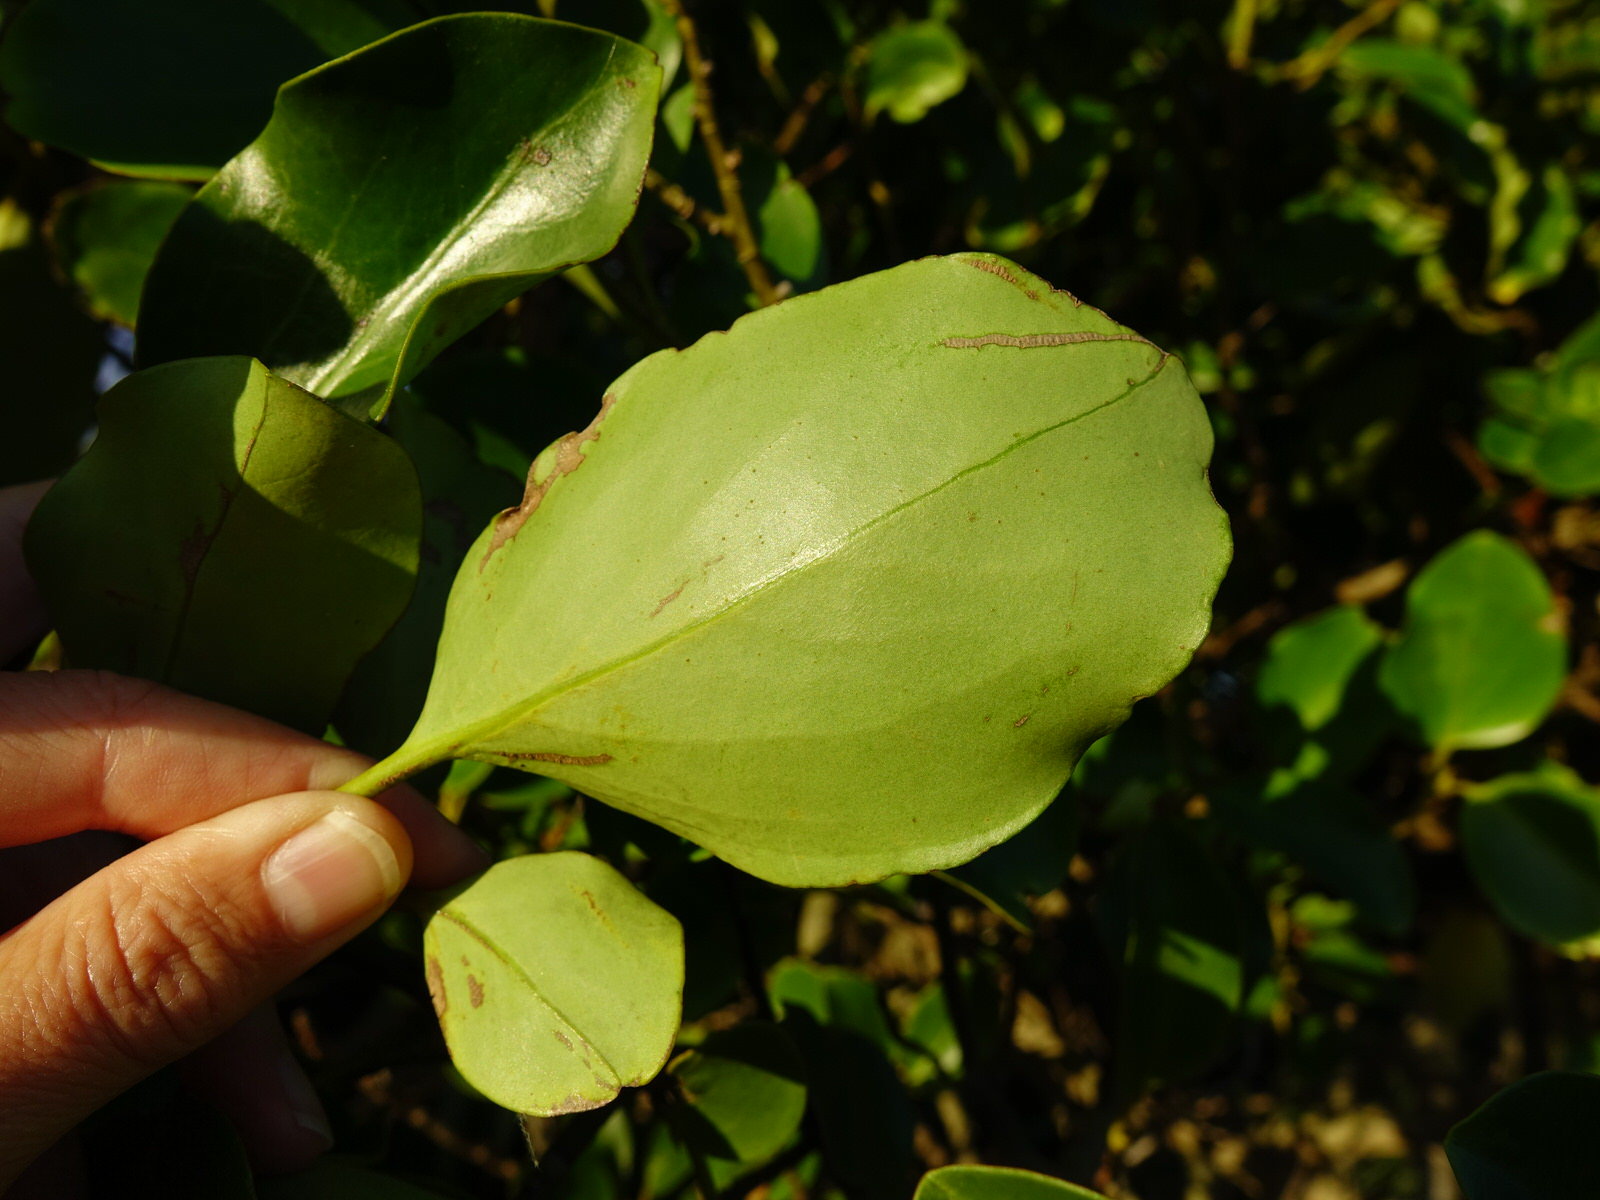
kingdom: Plantae
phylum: Tracheophyta
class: Magnoliopsida
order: Apiales
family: Griseliniaceae
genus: Griselinia
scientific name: Griselinia littoralis
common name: New zealand broadleaf
